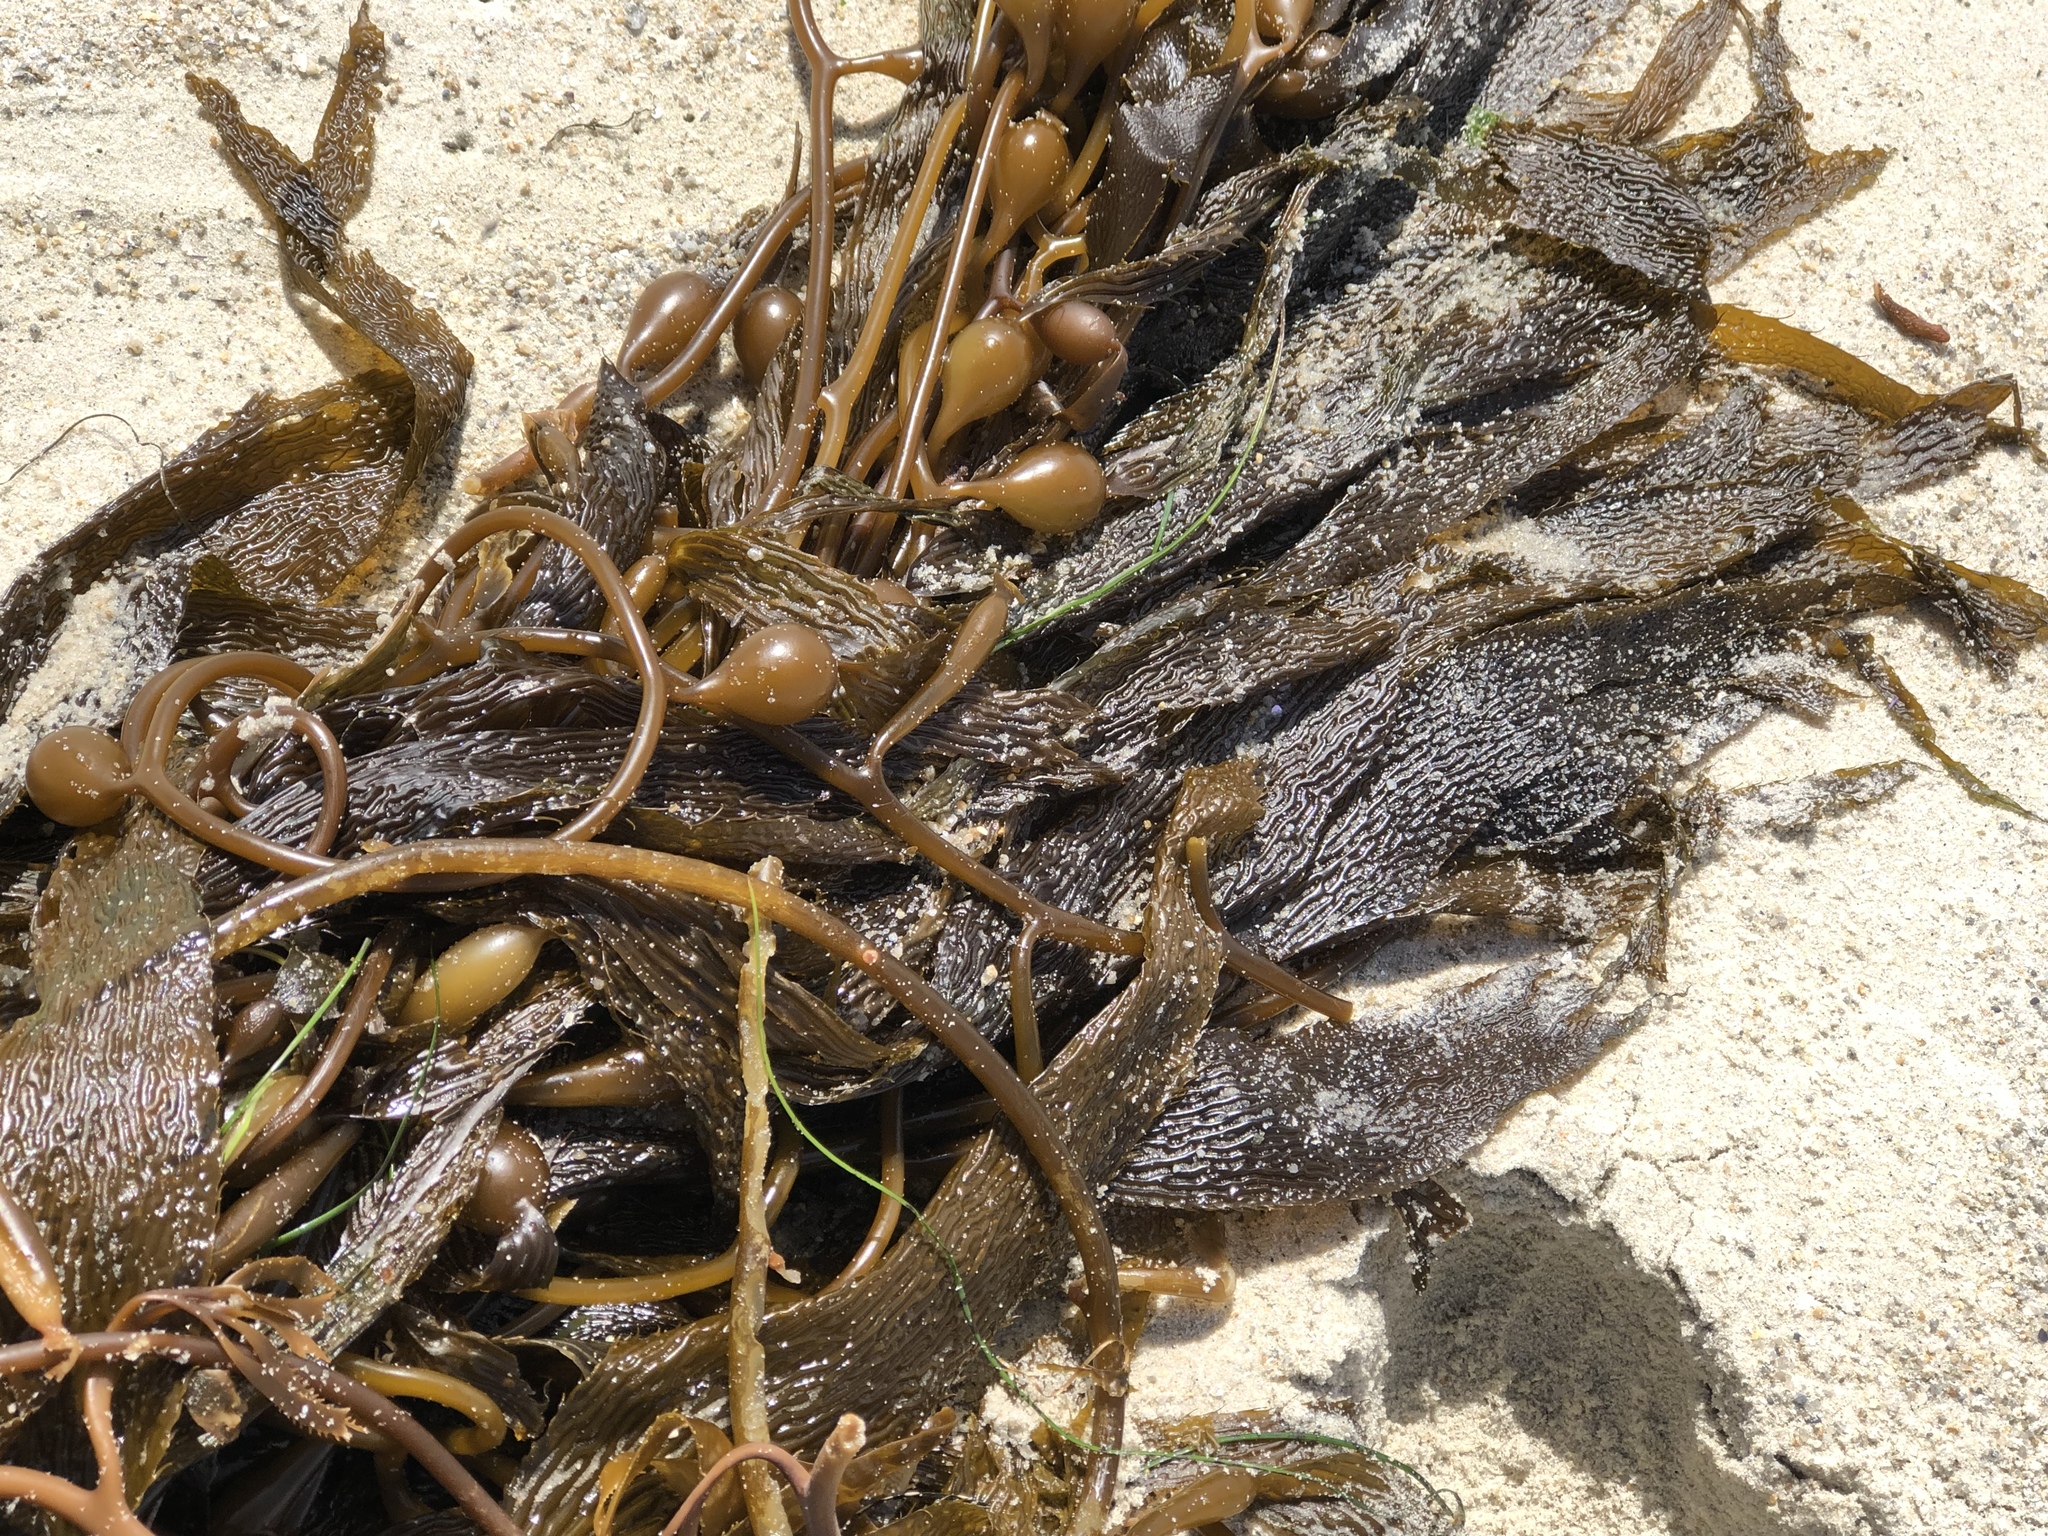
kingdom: Chromista
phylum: Ochrophyta
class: Phaeophyceae
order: Laminariales
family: Laminariaceae
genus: Macrocystis
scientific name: Macrocystis pyrifera
